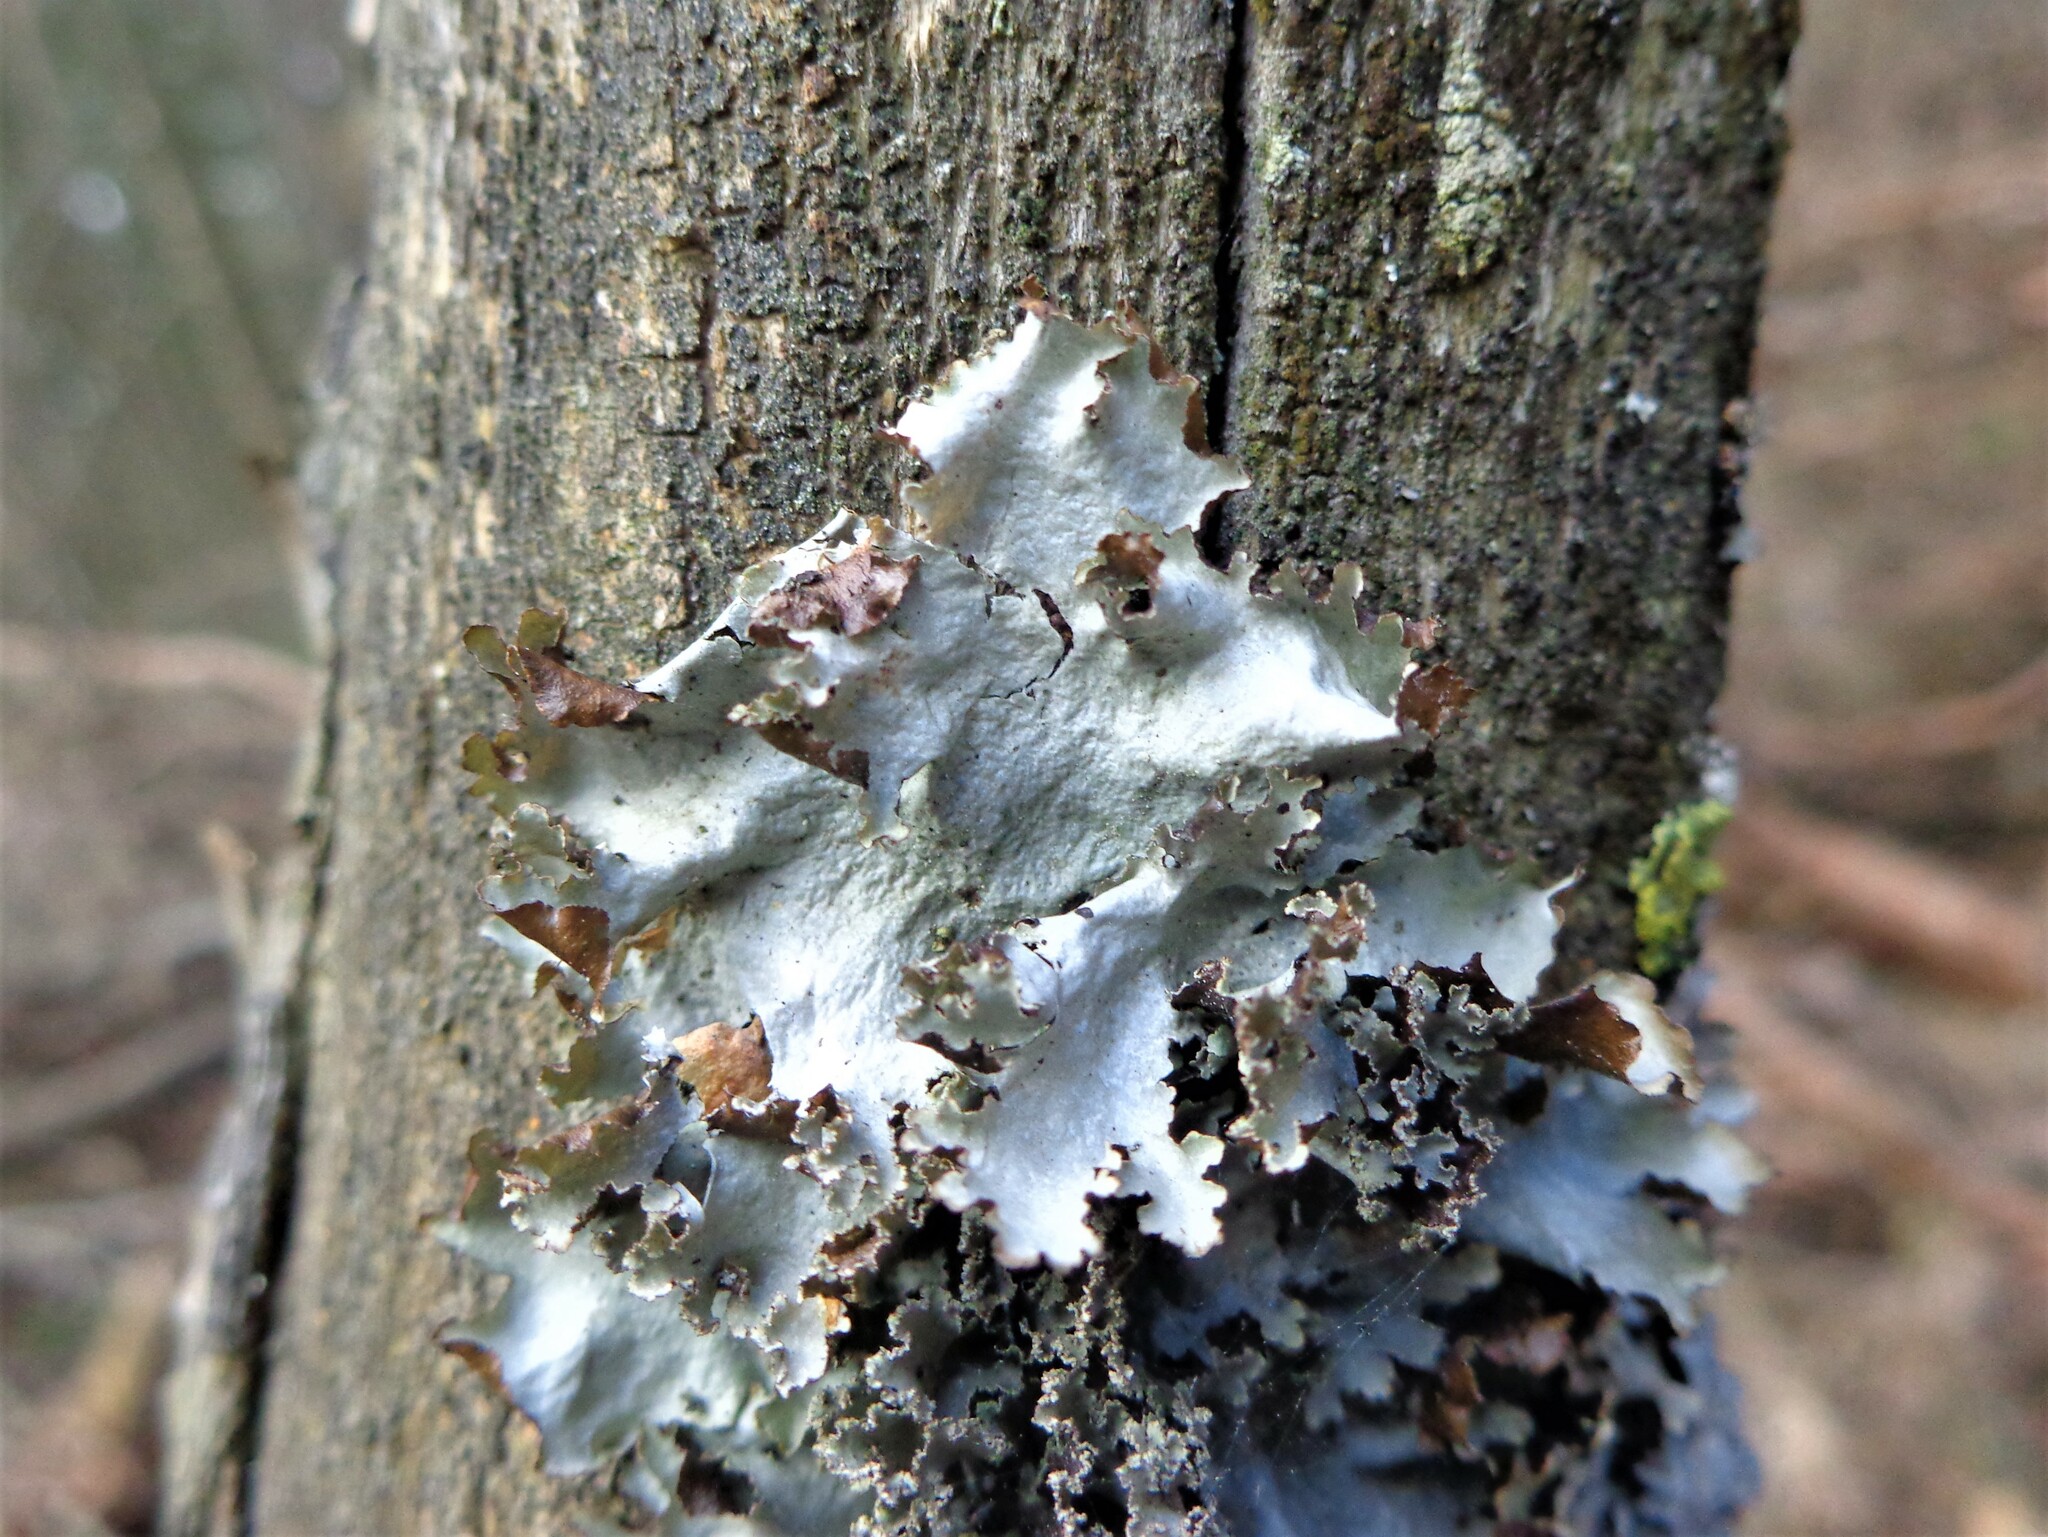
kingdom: Fungi
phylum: Ascomycota
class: Lecanoromycetes
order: Lecanorales
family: Parmeliaceae
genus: Platismatia
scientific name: Platismatia glauca
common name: Varied rag lichen
